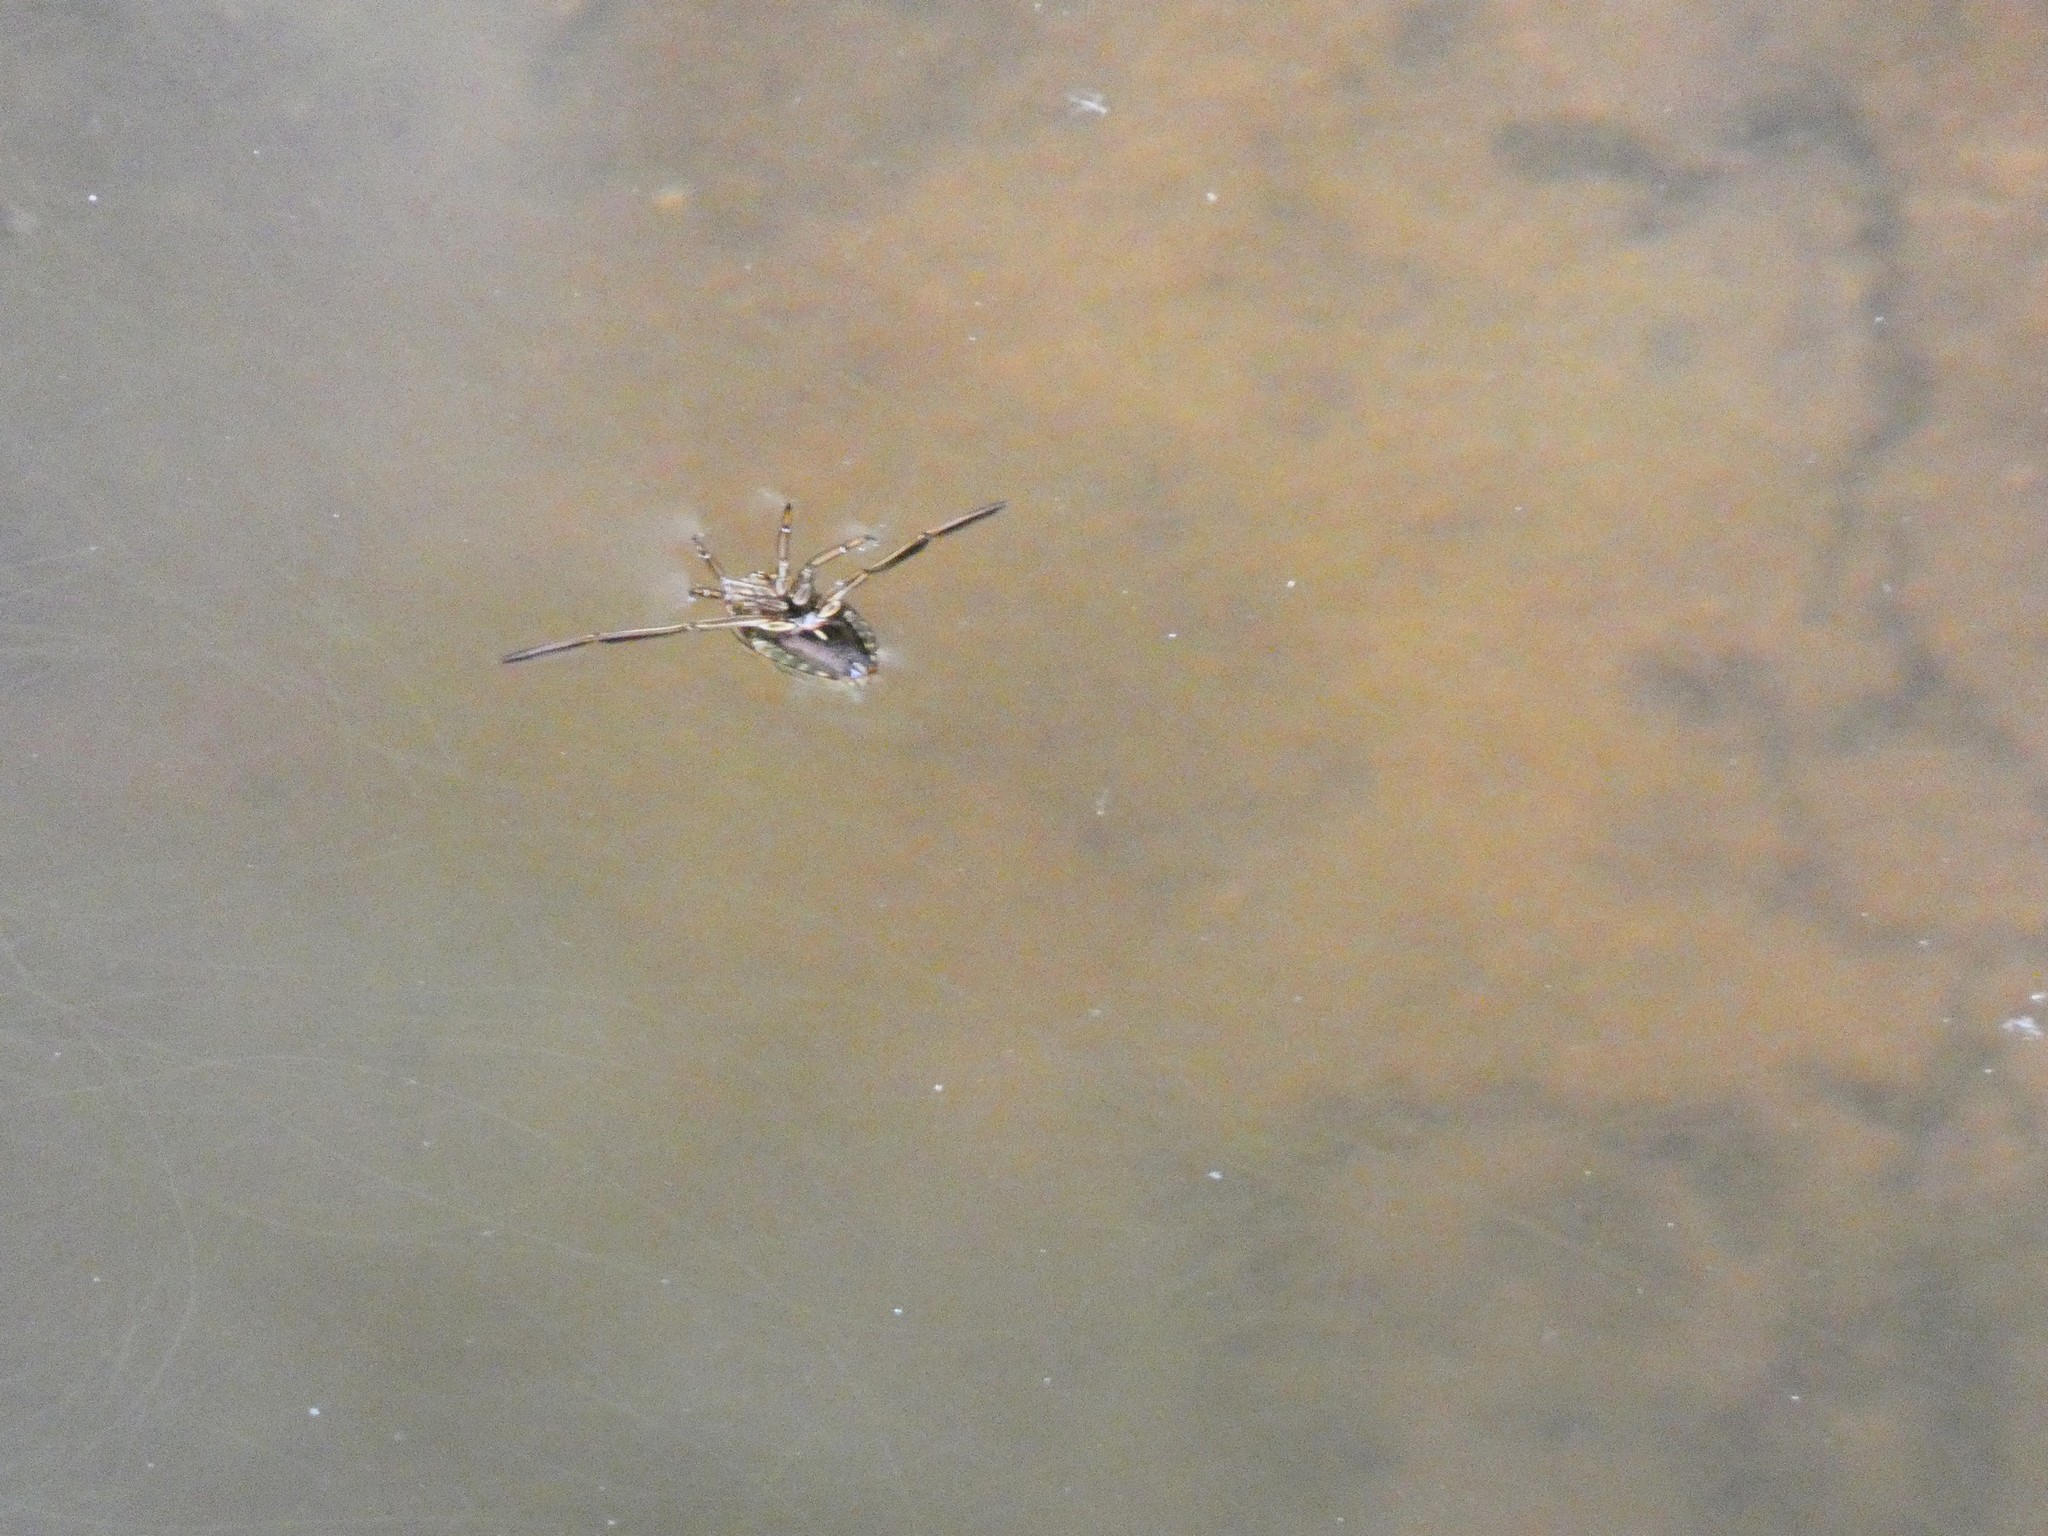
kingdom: Animalia
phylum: Arthropoda
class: Insecta
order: Hemiptera
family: Notonectidae
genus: Notonecta
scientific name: Notonecta
